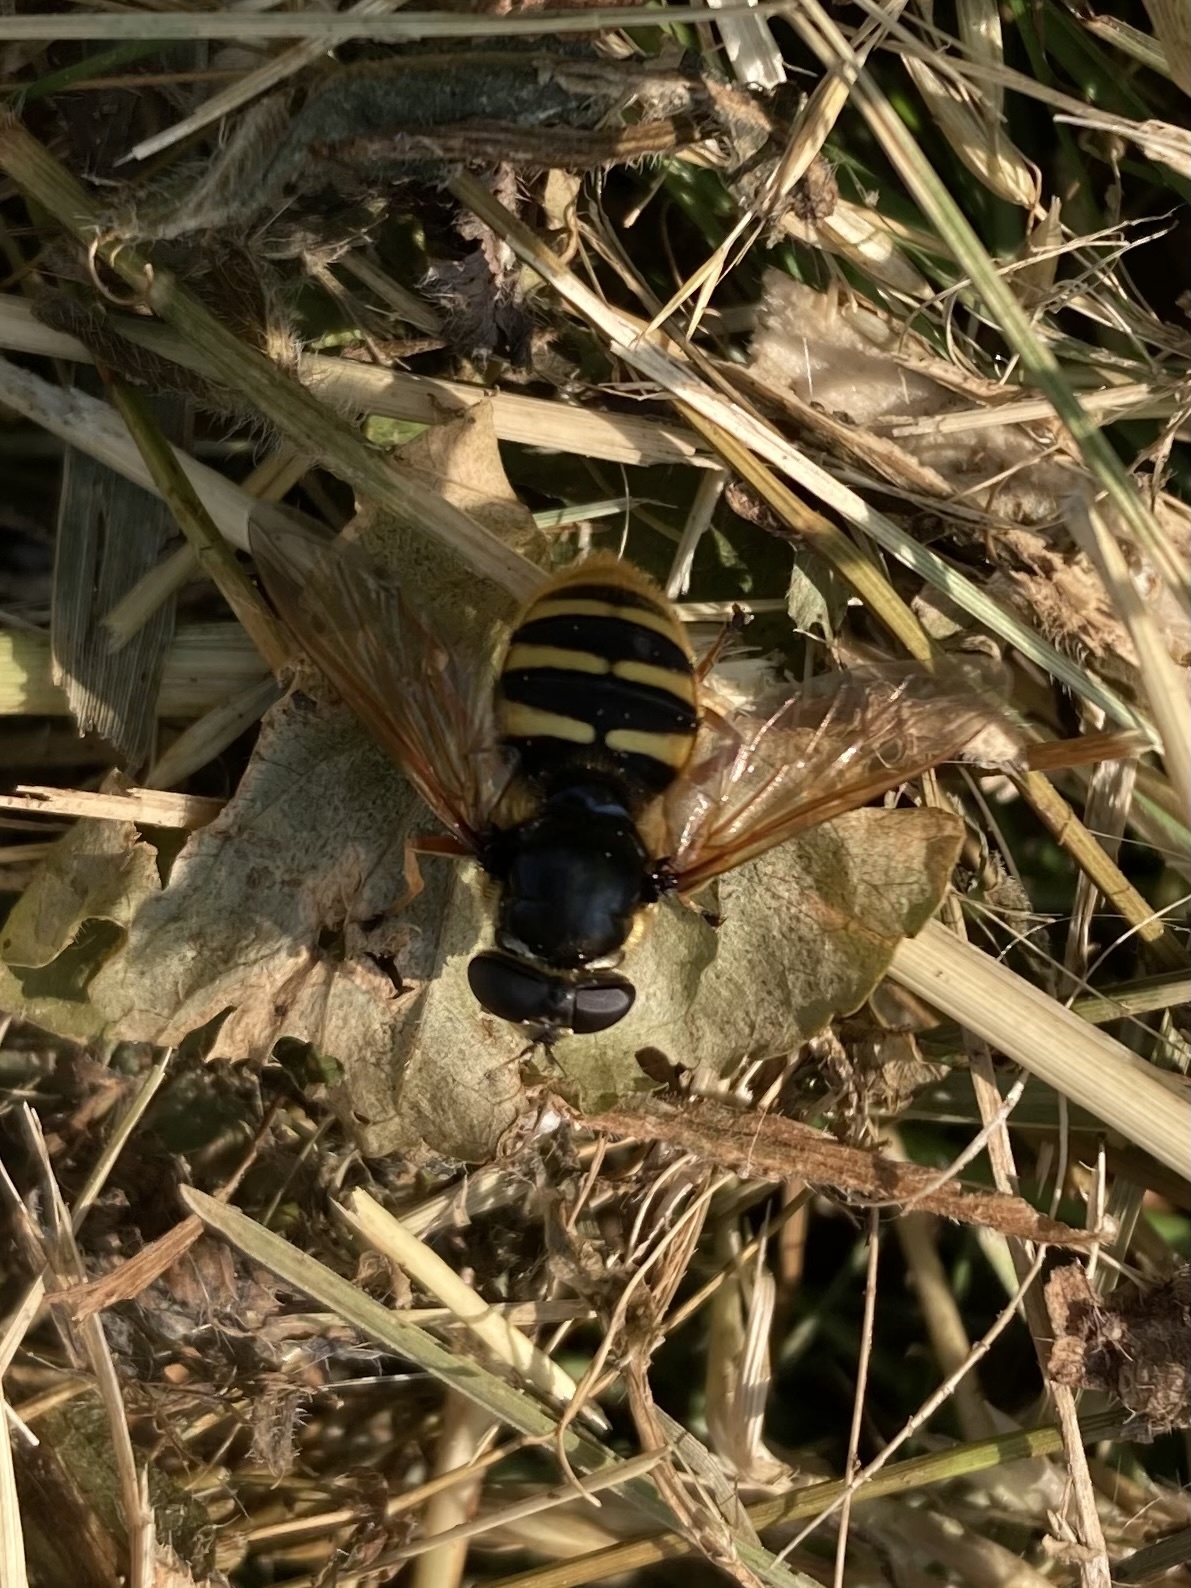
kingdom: Animalia
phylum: Arthropoda
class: Insecta
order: Diptera
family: Syrphidae
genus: Sericomyia
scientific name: Sericomyia silentis
